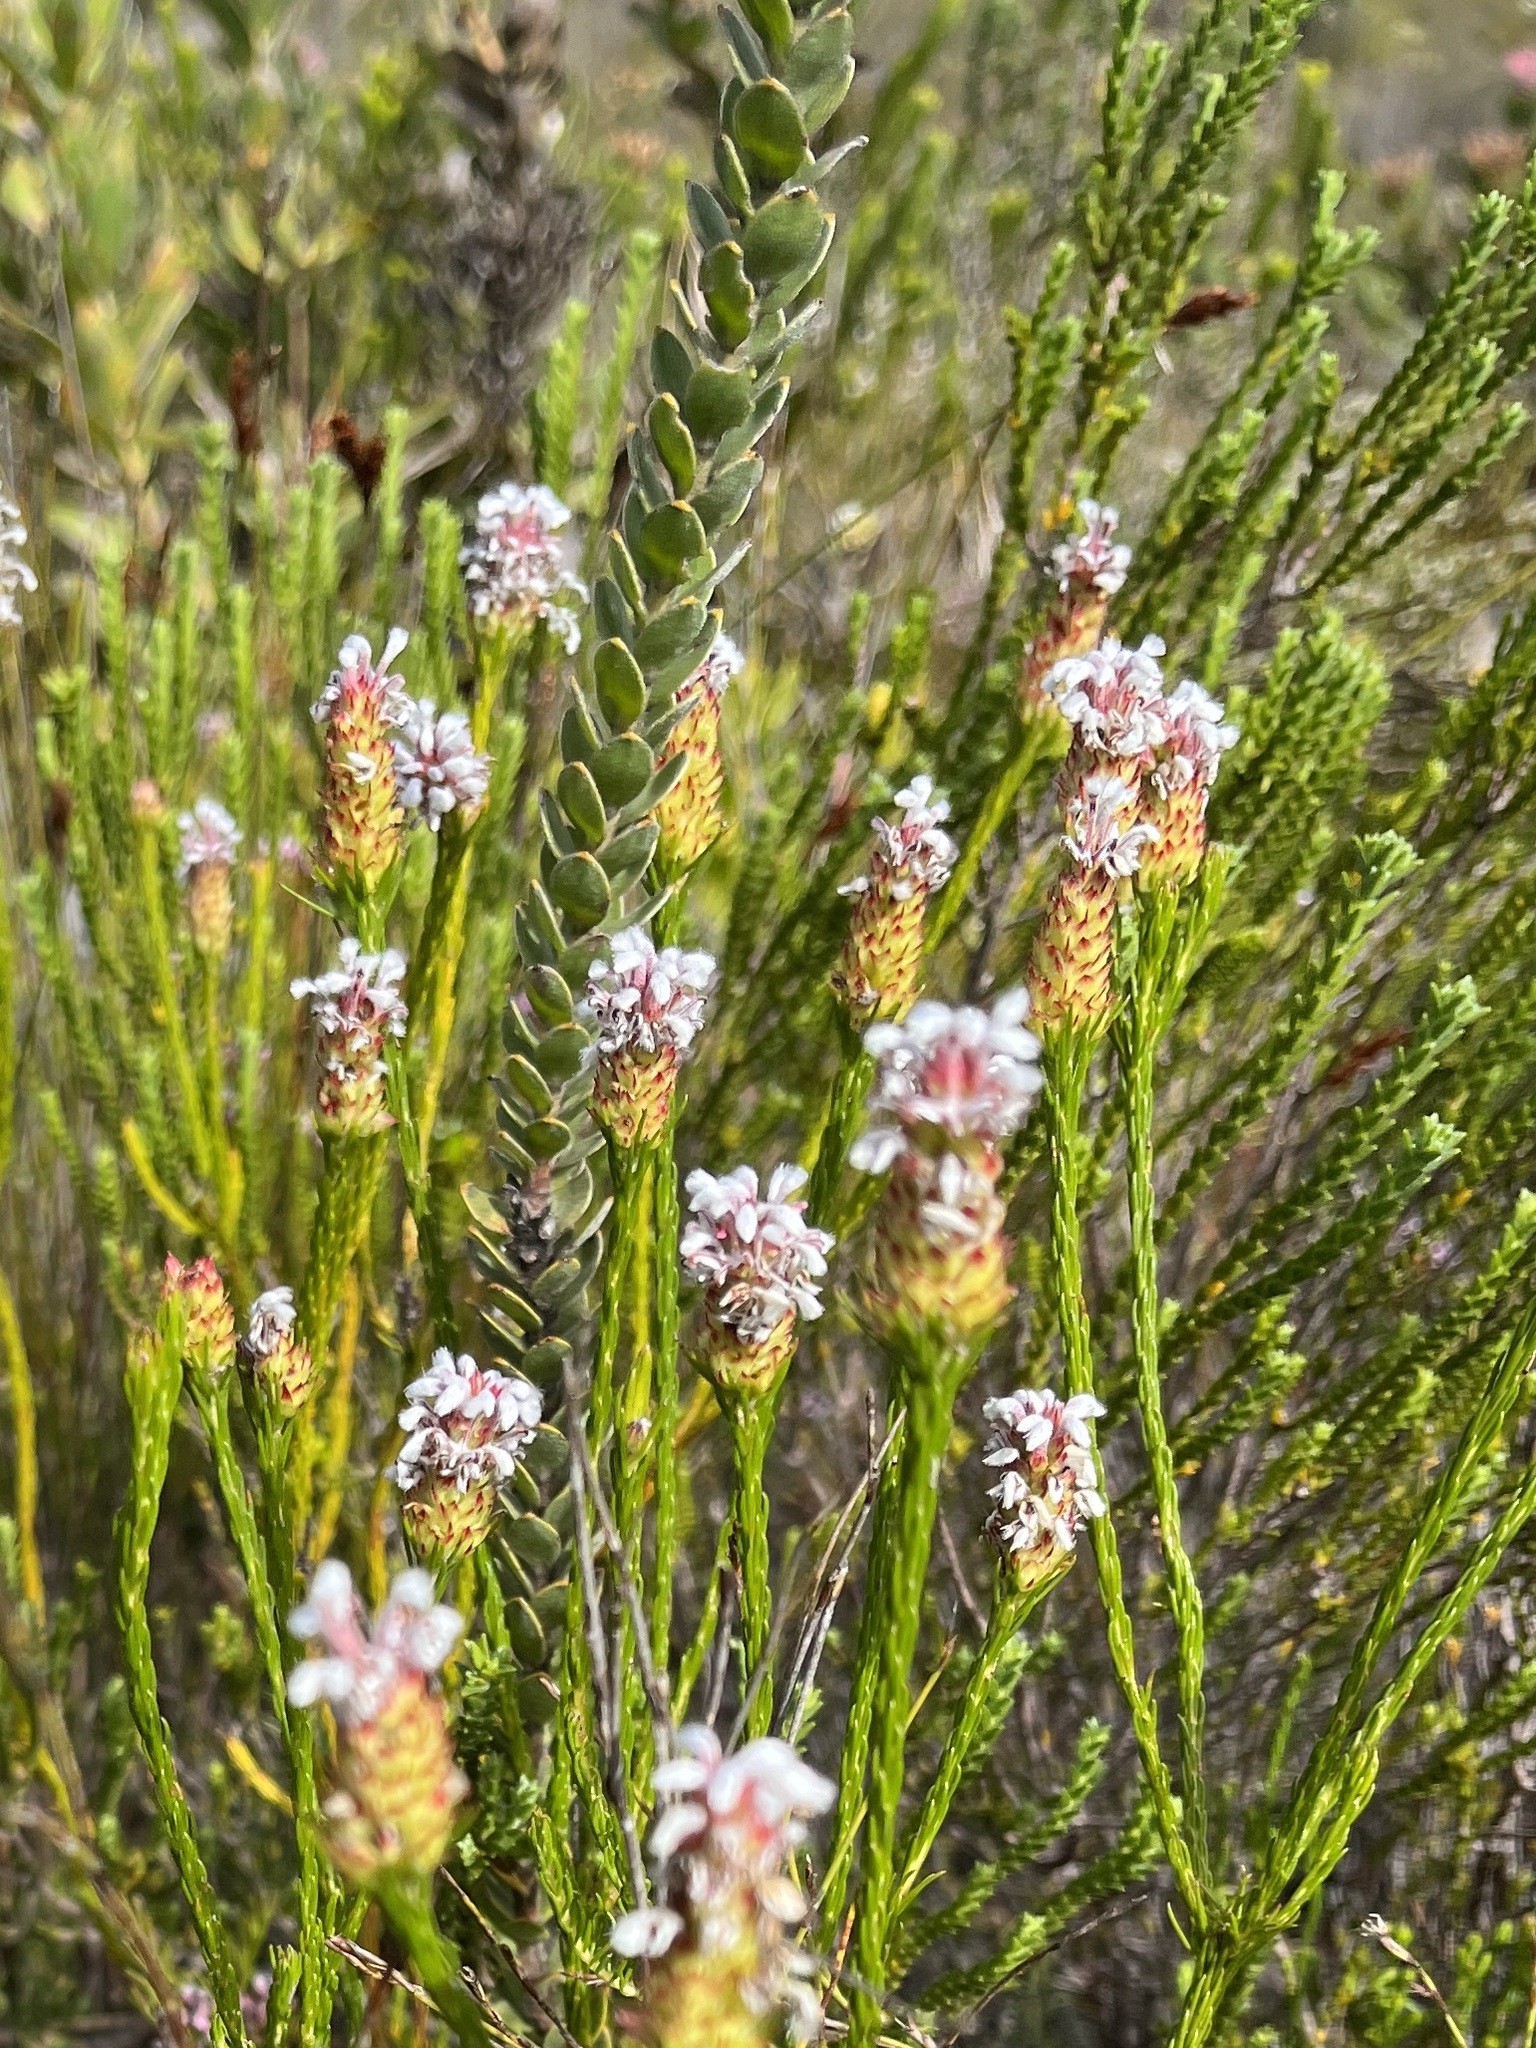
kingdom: Plantae
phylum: Tracheophyta
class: Magnoliopsida
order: Proteales
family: Proteaceae
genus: Spatalla
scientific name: Spatalla squamata
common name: Silky spoon
